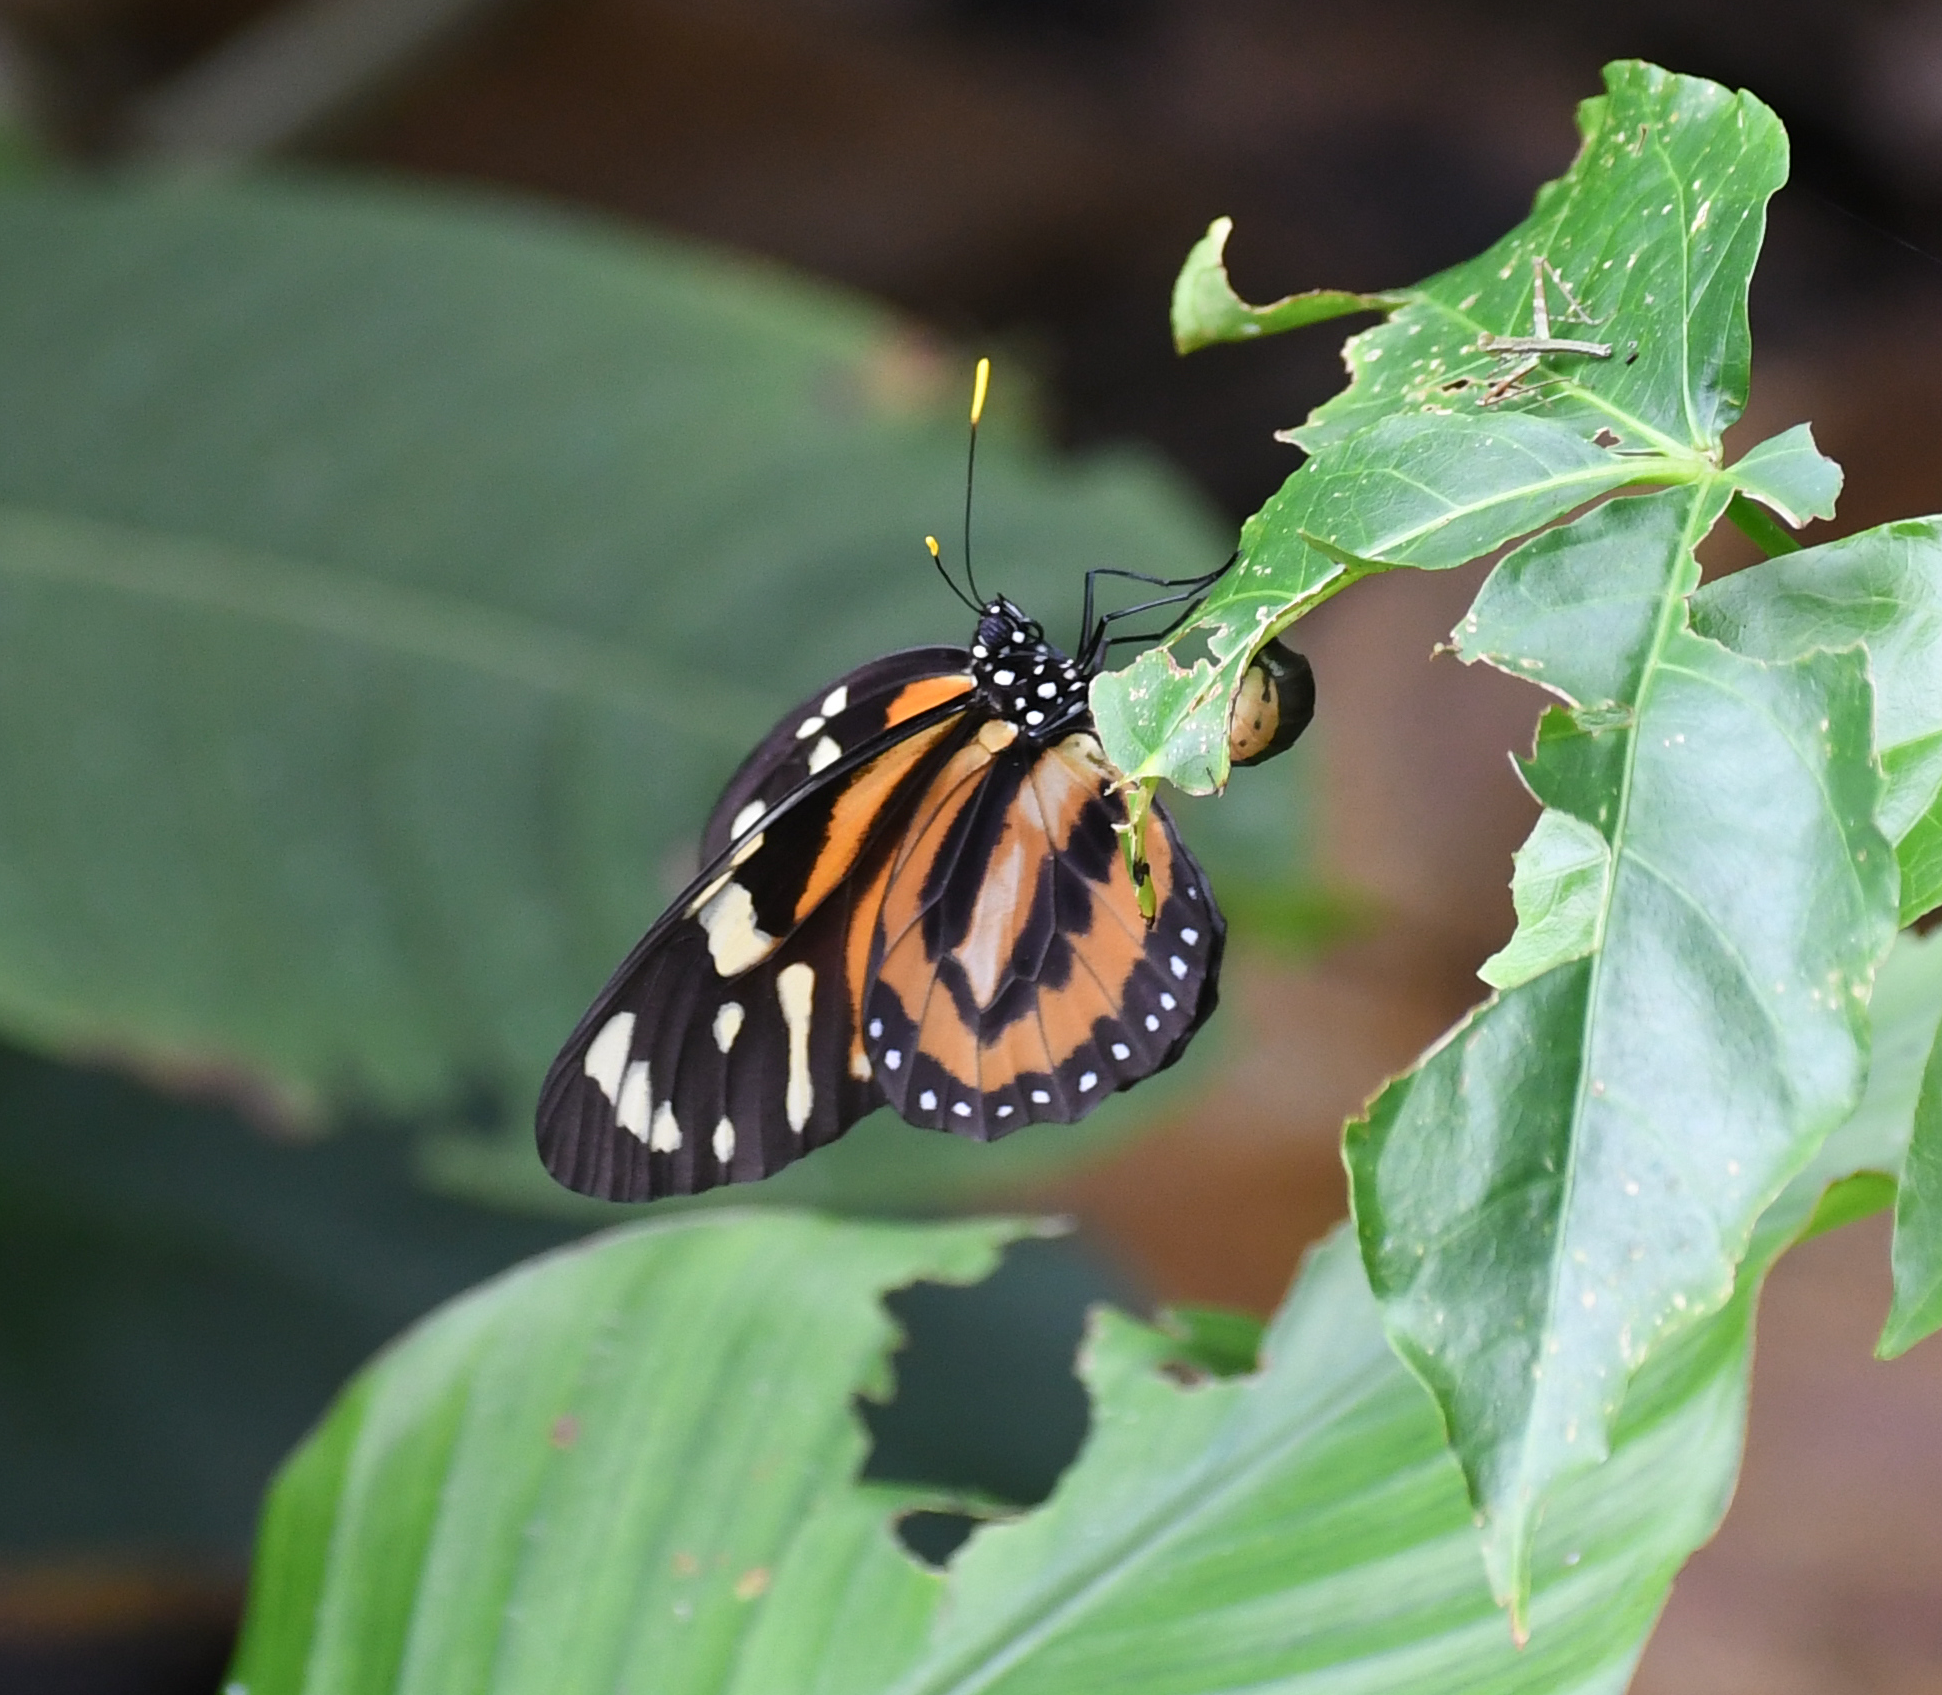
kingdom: Animalia
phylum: Arthropoda
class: Insecta
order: Lepidoptera
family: Nymphalidae
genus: Lycorea
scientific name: Lycorea cleobaea
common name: Tiger mimic-queen
